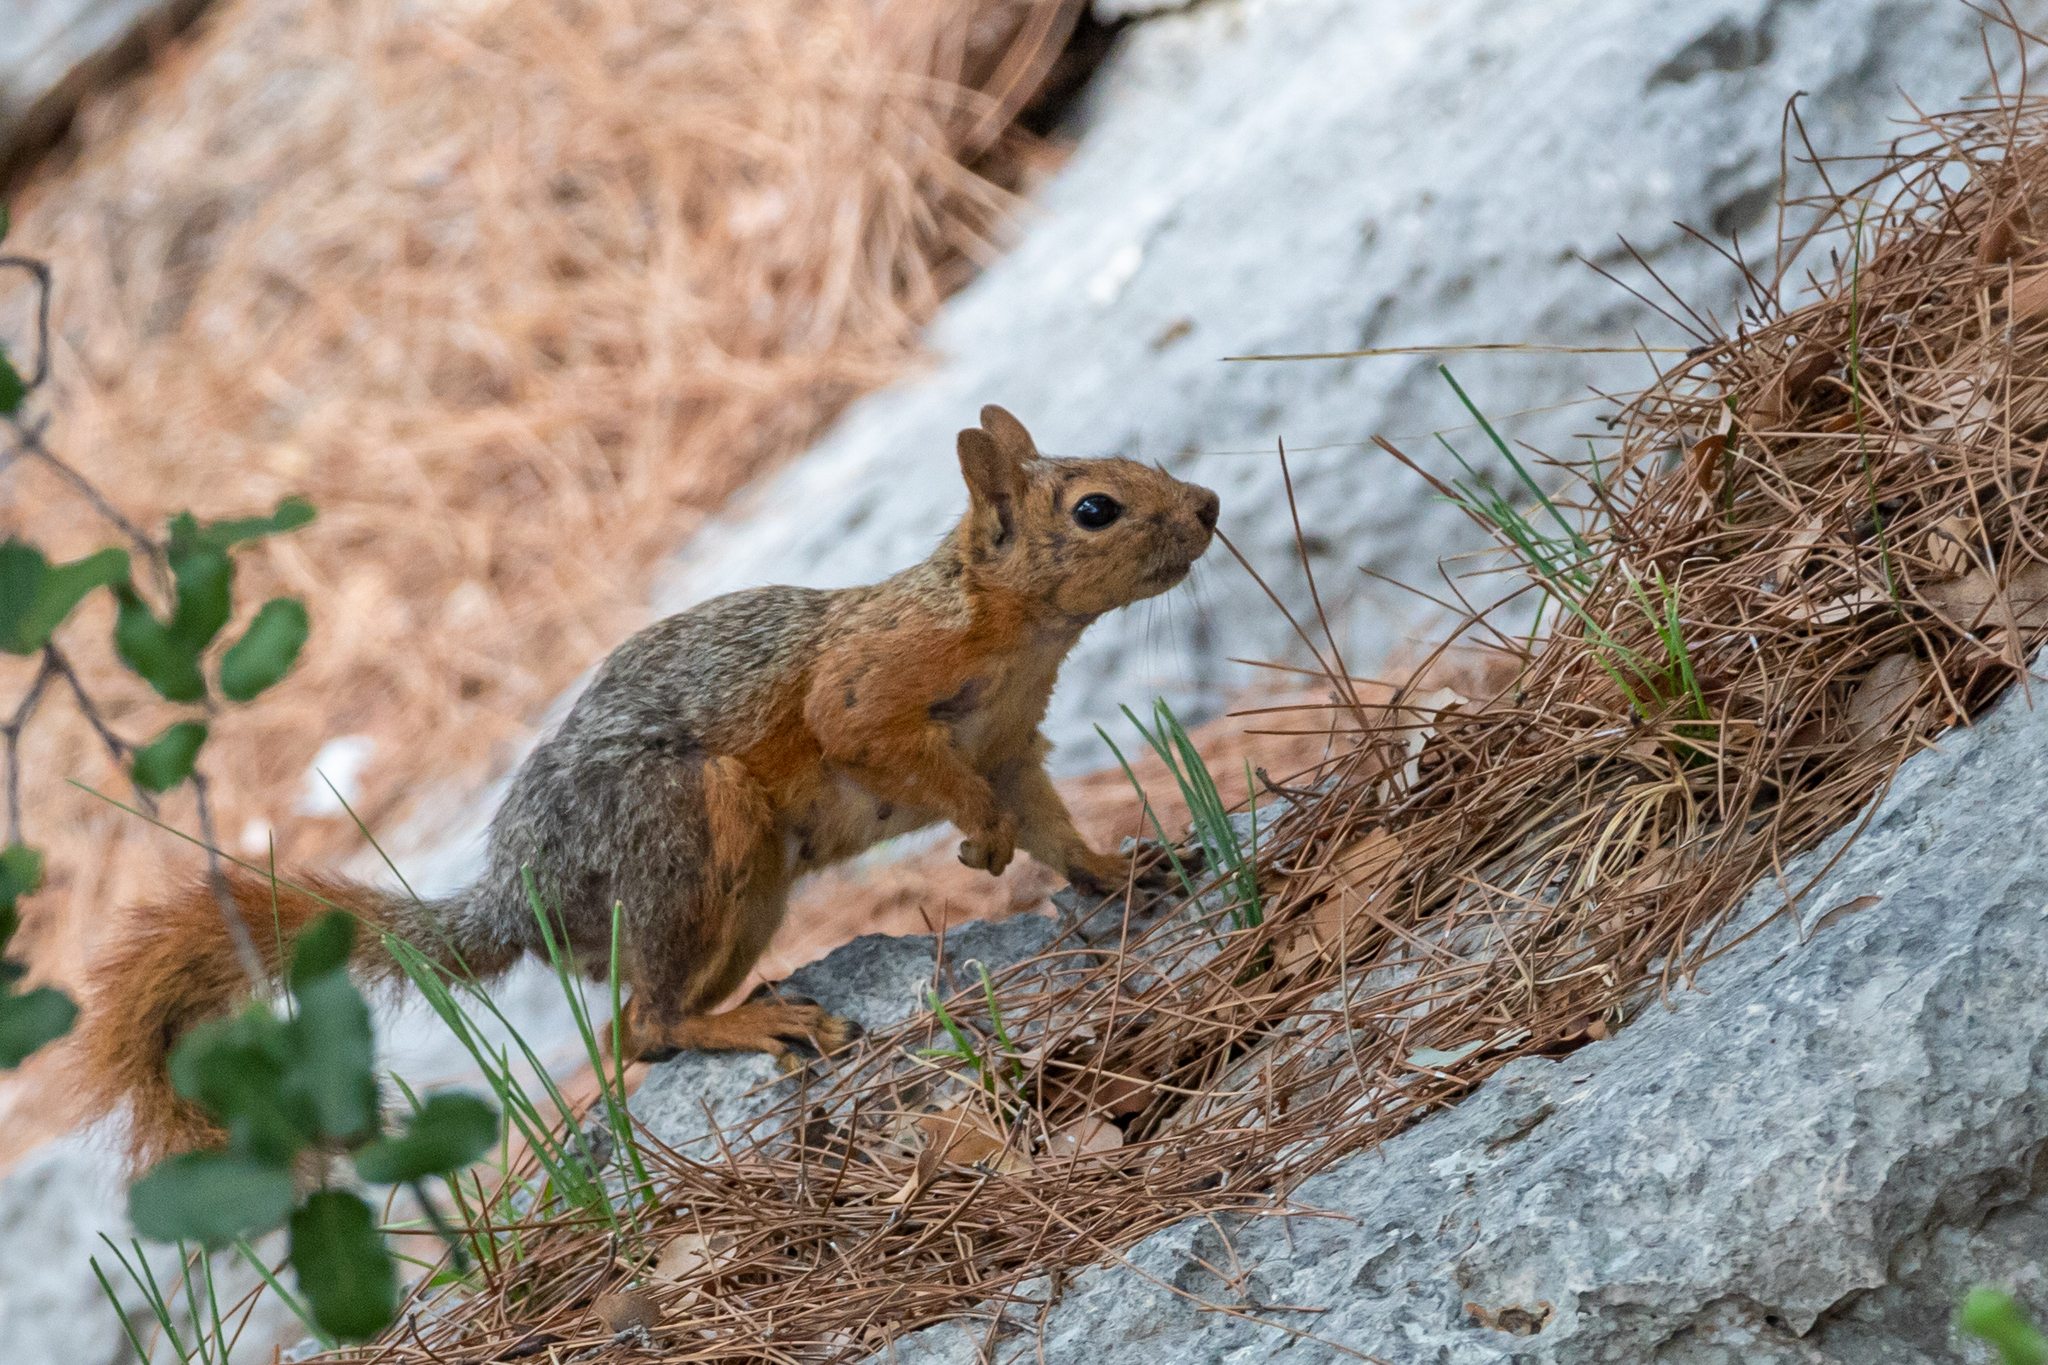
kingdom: Animalia
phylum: Chordata
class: Mammalia
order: Rodentia
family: Sciuridae
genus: Sciurus
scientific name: Sciurus anomalus
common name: Caucasian squirrel
